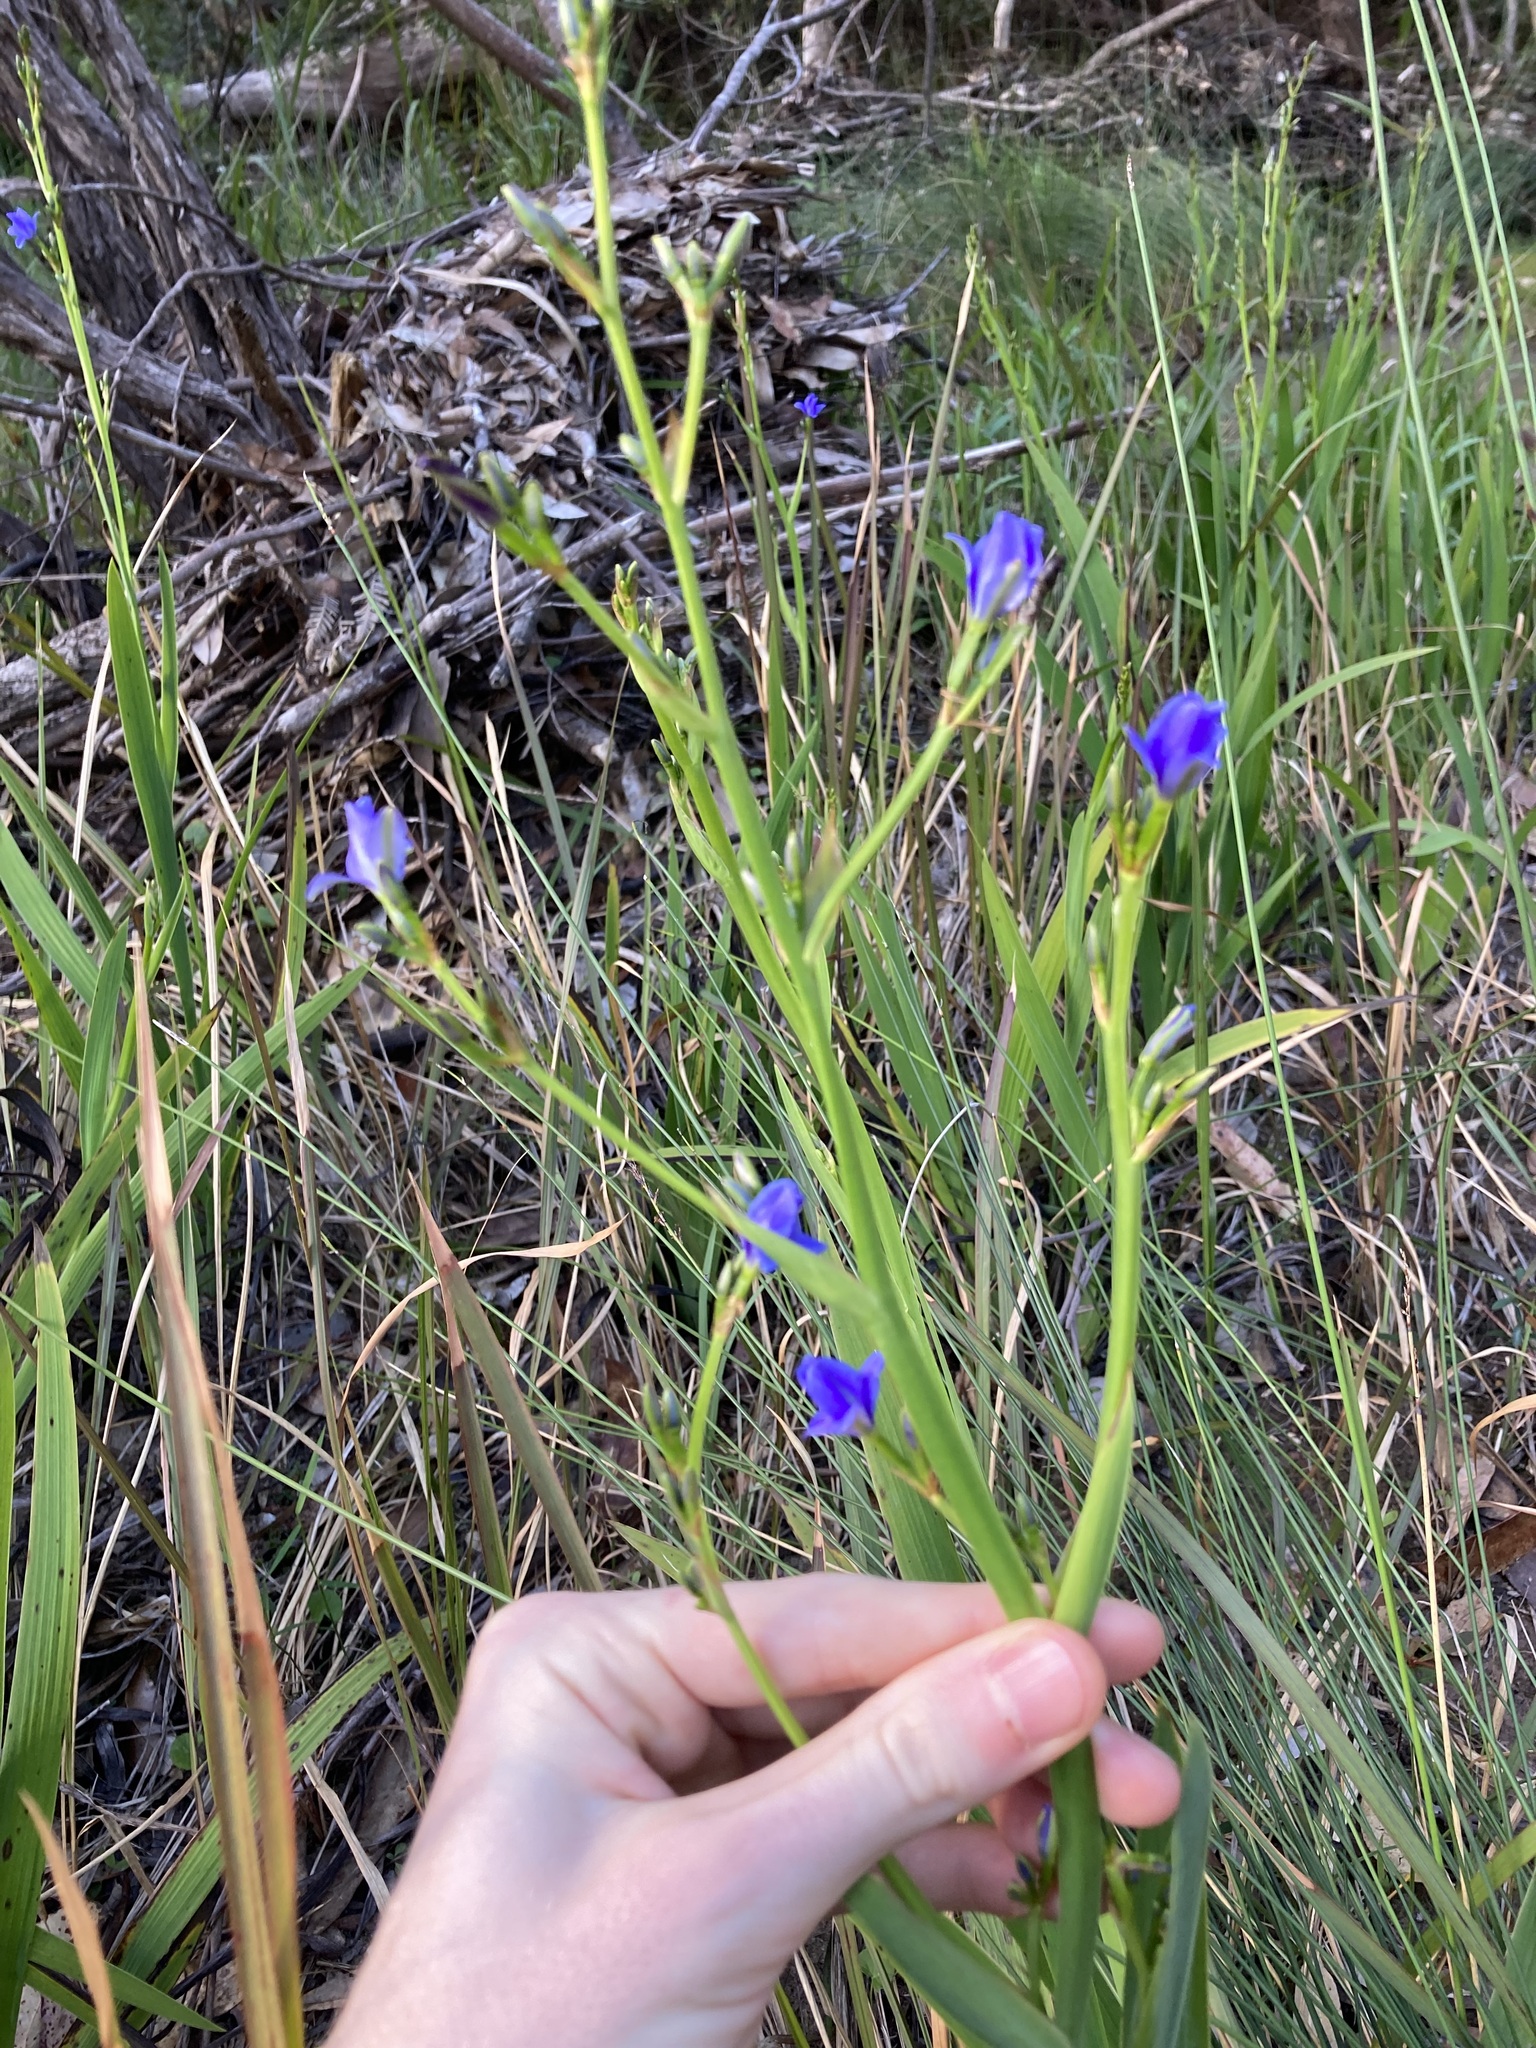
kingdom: Plantae
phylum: Tracheophyta
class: Liliopsida
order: Asparagales
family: Iridaceae
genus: Aristea
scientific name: Aristea ecklonii
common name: Blue corn-lily
